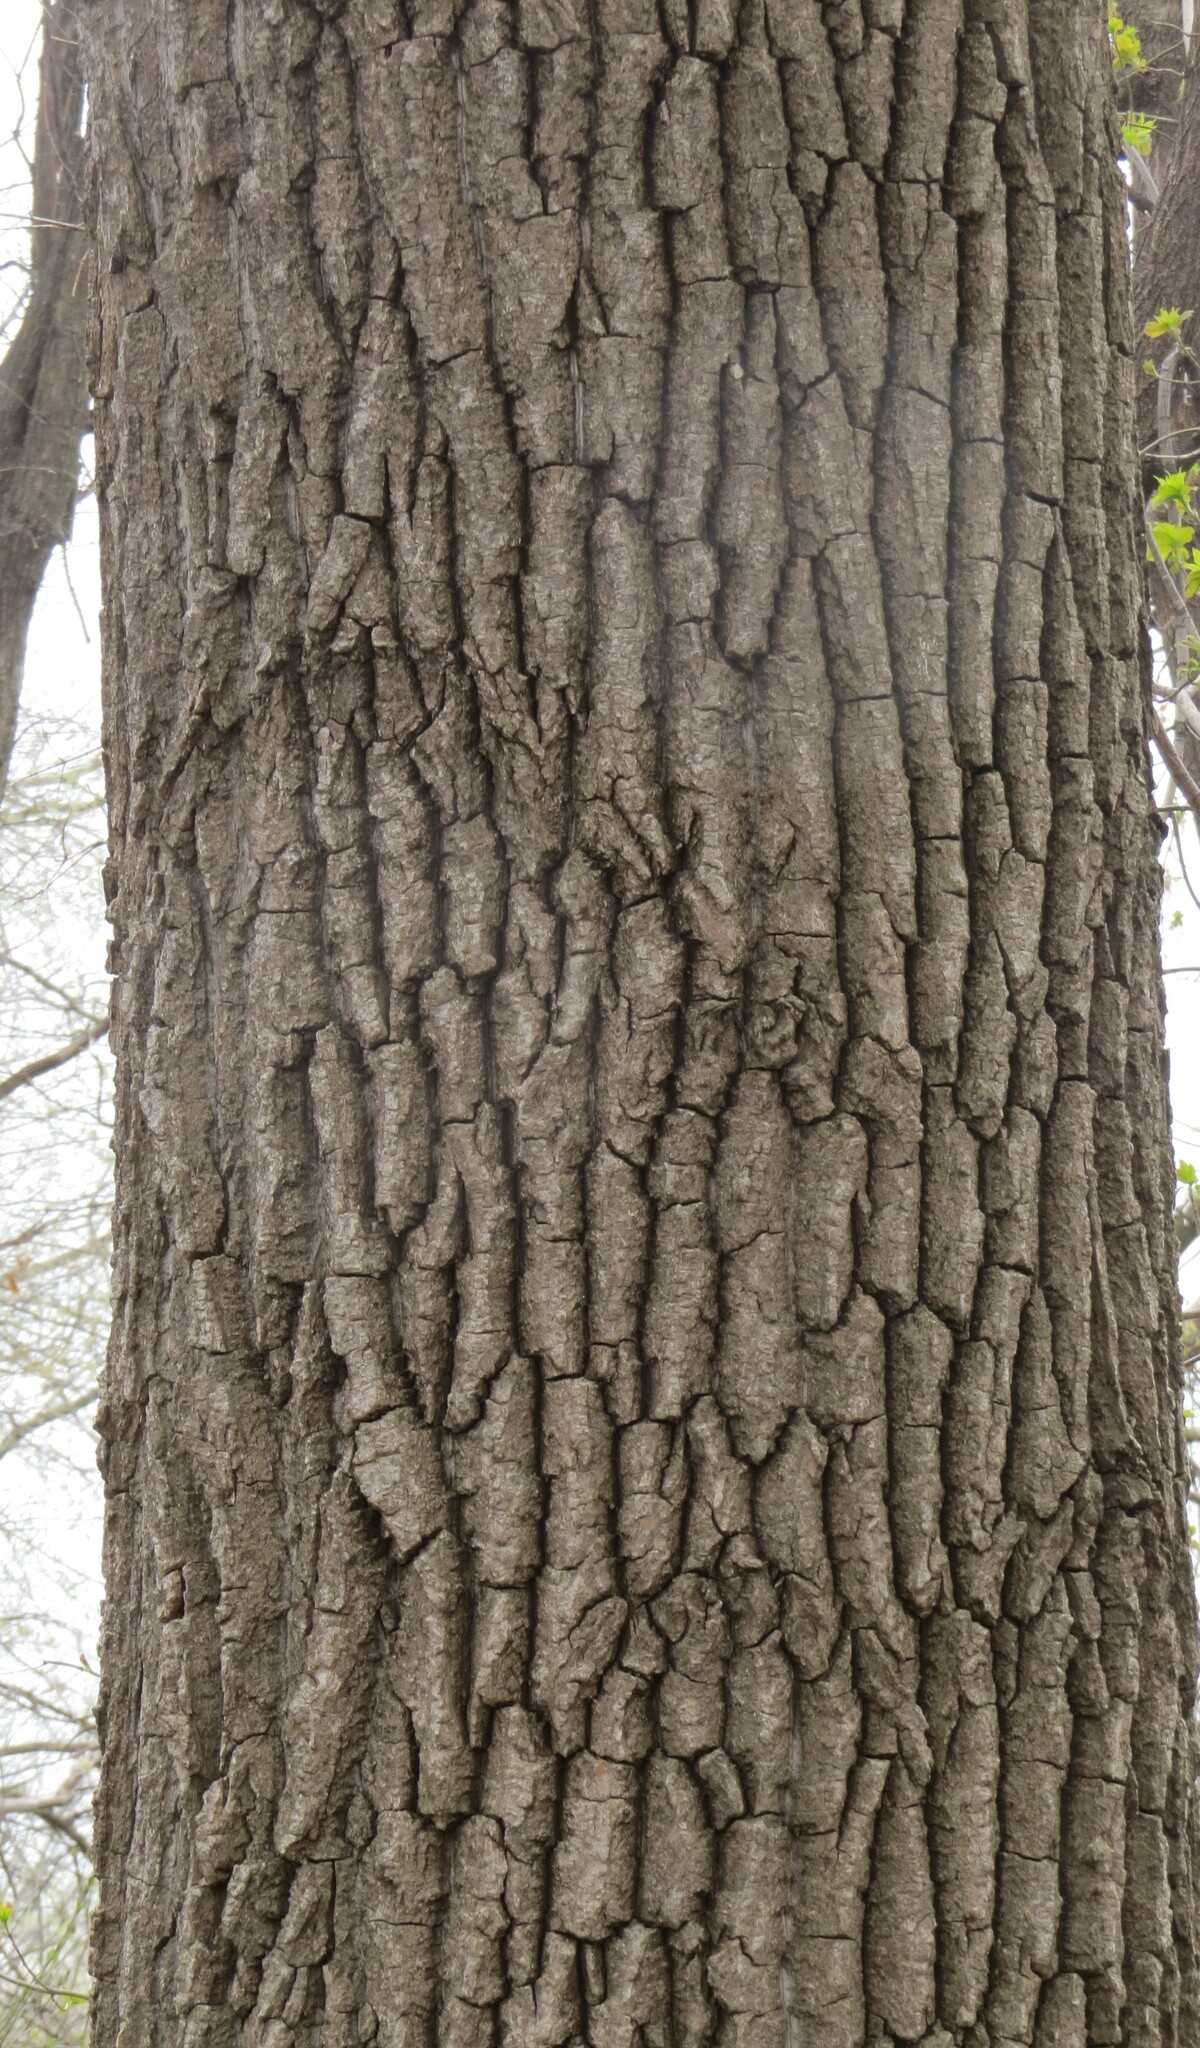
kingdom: Plantae
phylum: Tracheophyta
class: Magnoliopsida
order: Malpighiales
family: Salicaceae
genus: Populus
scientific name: Populus deltoides
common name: Eastern cottonwood
